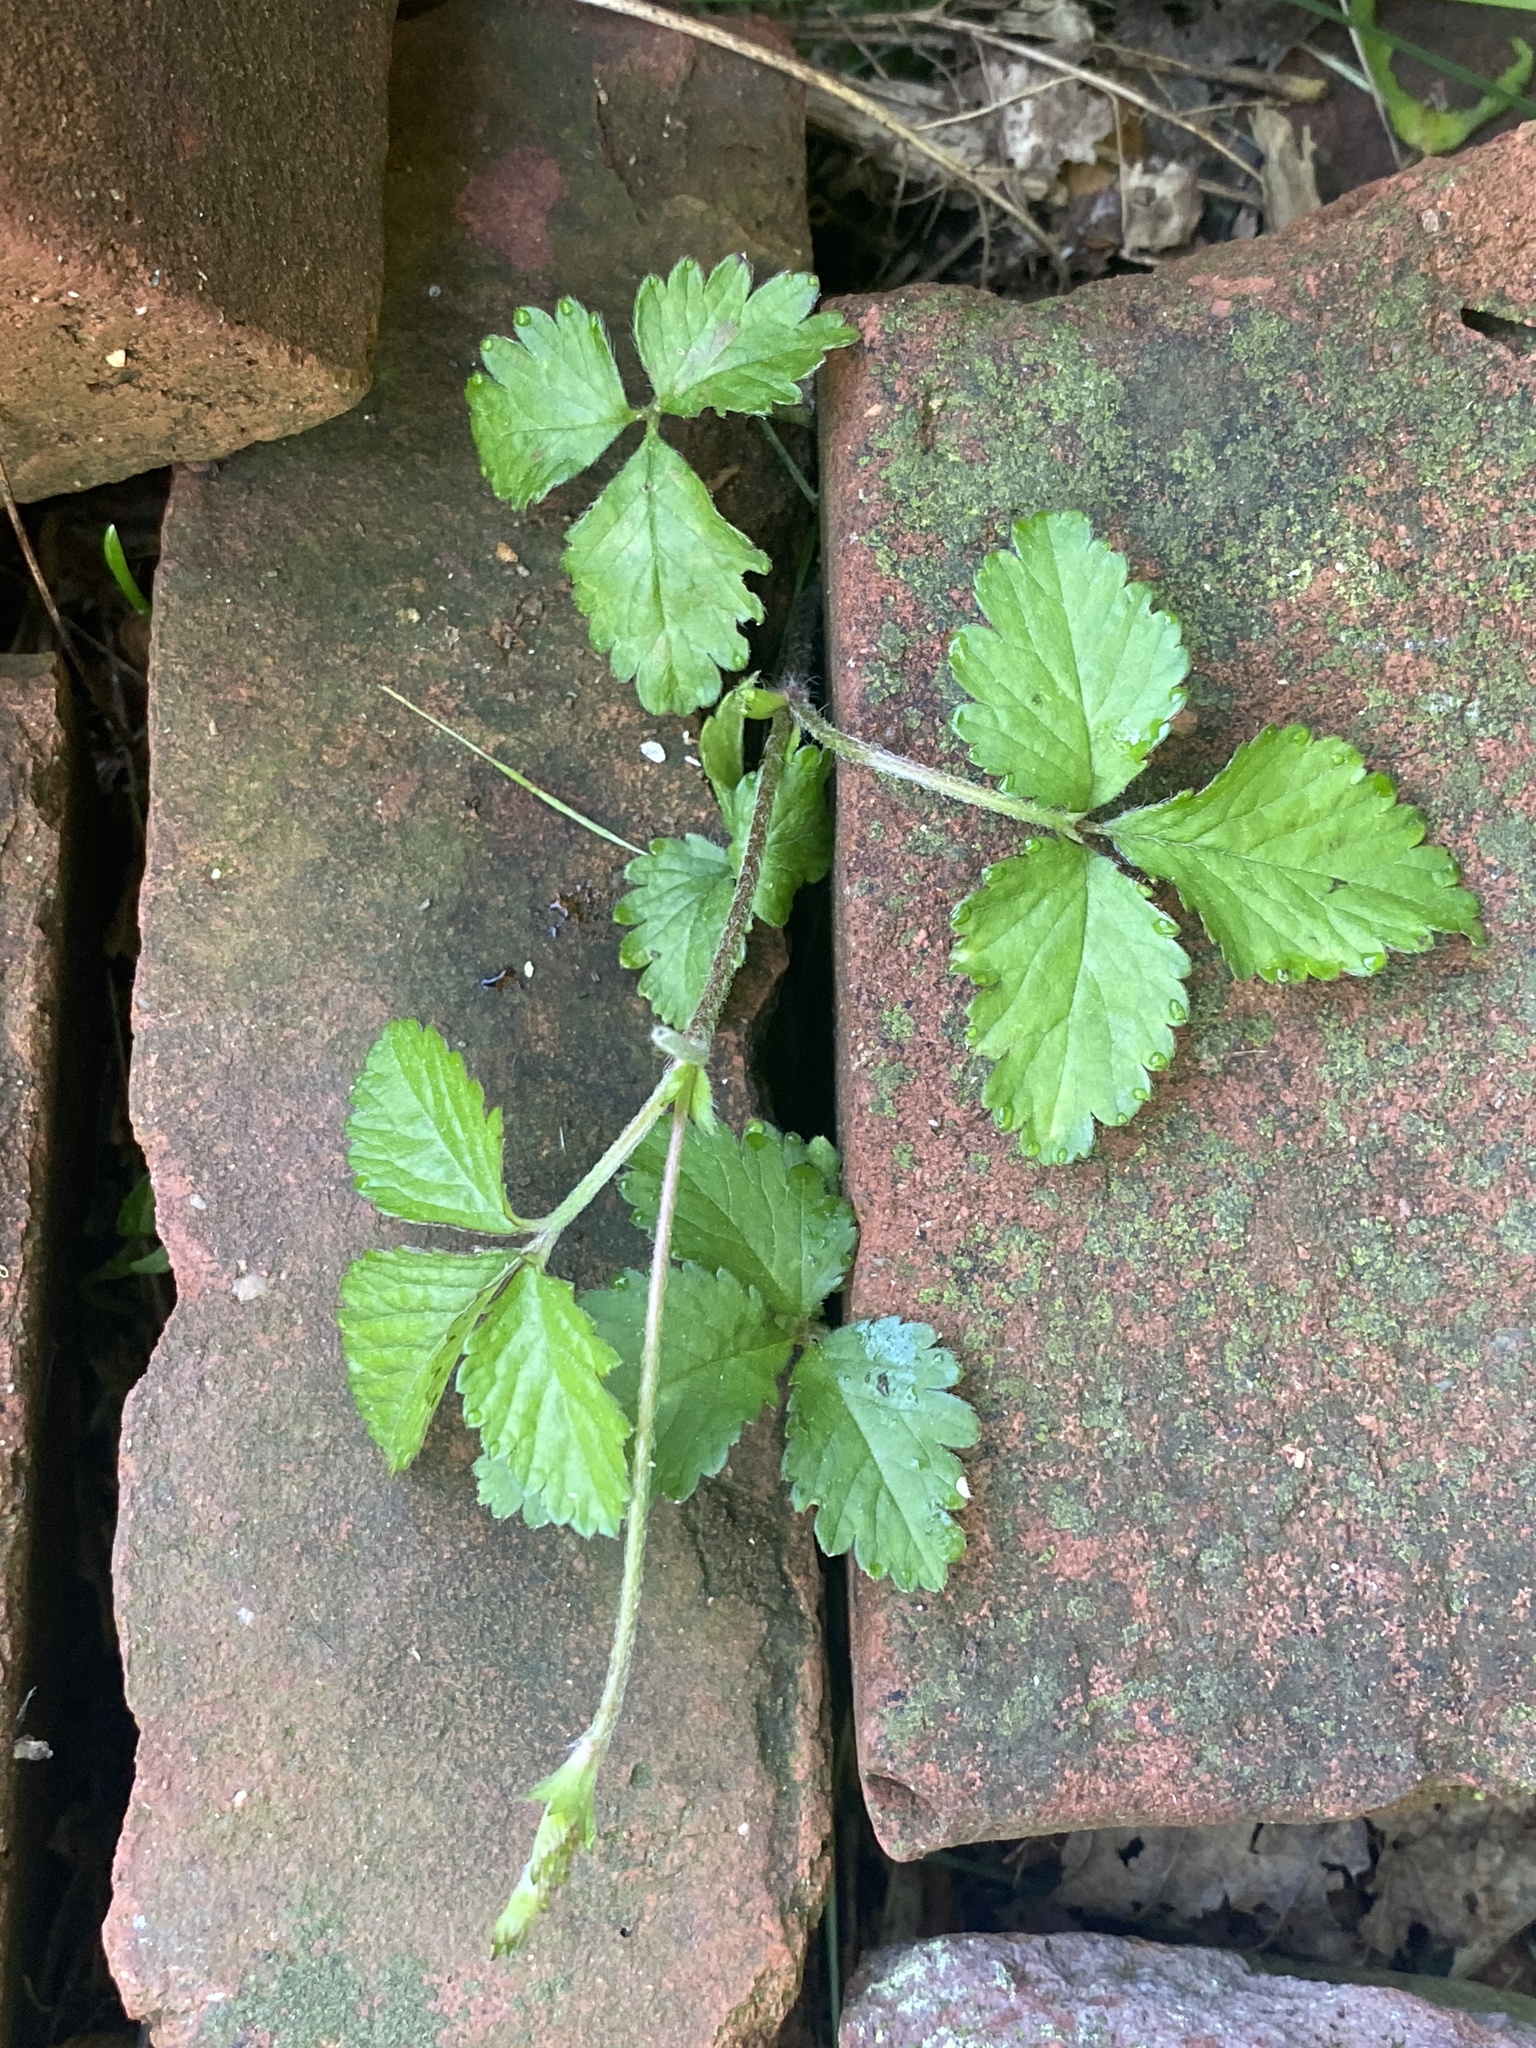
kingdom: Plantae
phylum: Tracheophyta
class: Magnoliopsida
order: Rosales
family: Rosaceae
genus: Potentilla
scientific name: Potentilla indica
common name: Yellow-flowered strawberry
